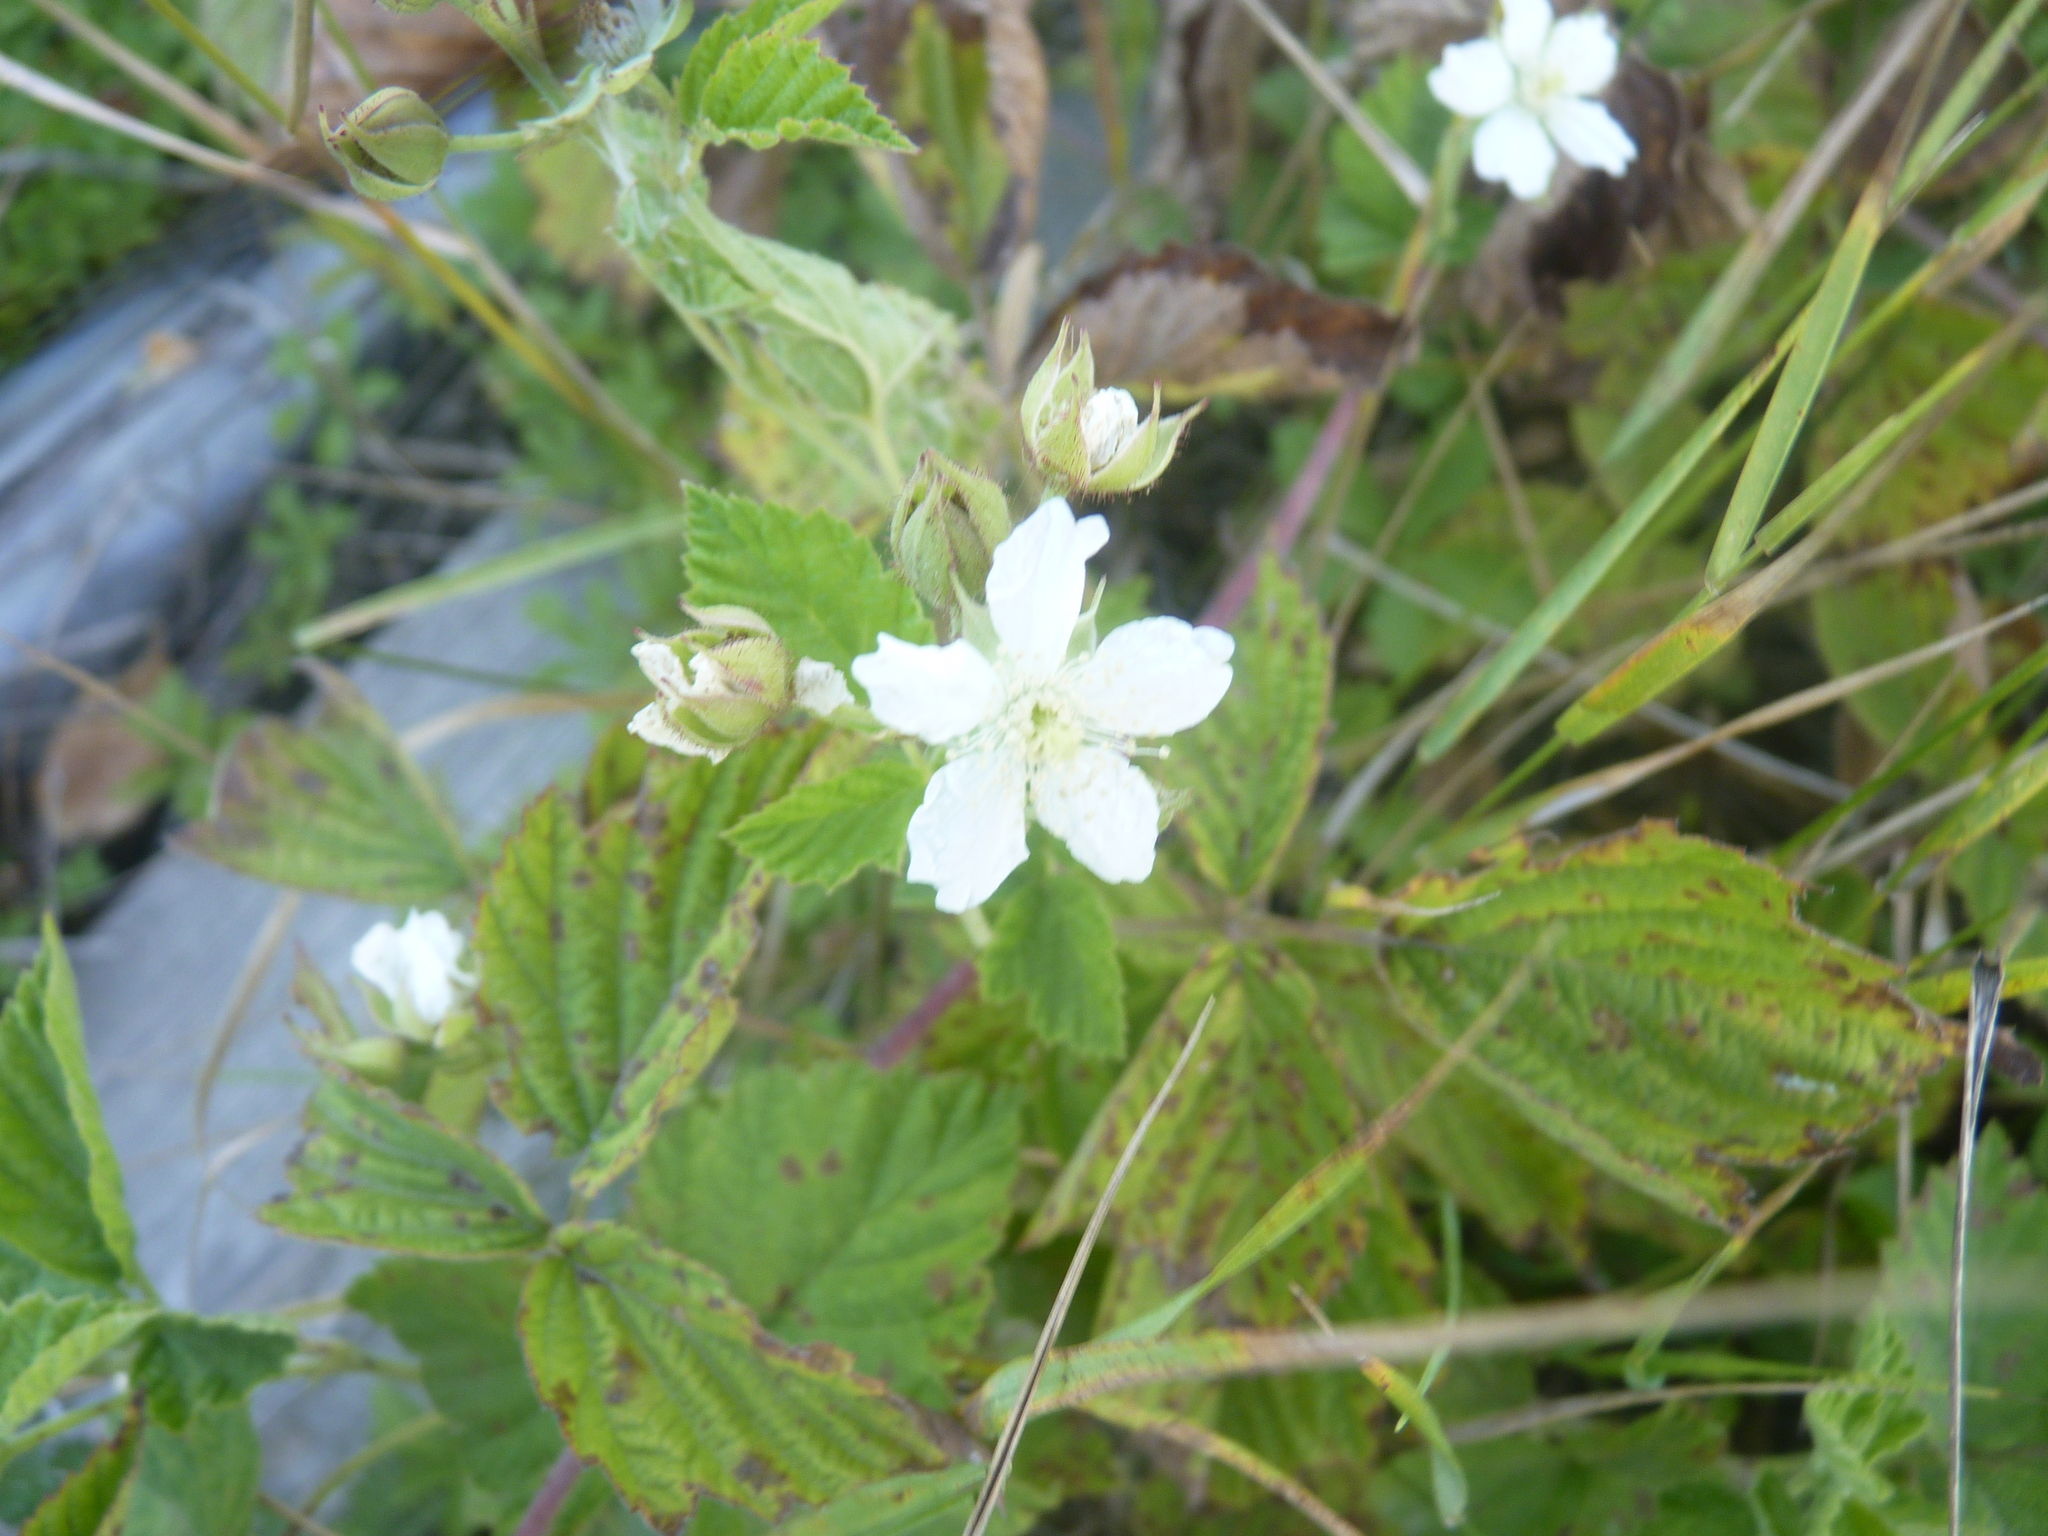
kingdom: Plantae
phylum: Tracheophyta
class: Magnoliopsida
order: Rosales
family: Rosaceae
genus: Rubus
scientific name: Rubus caesius
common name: Dewberry
